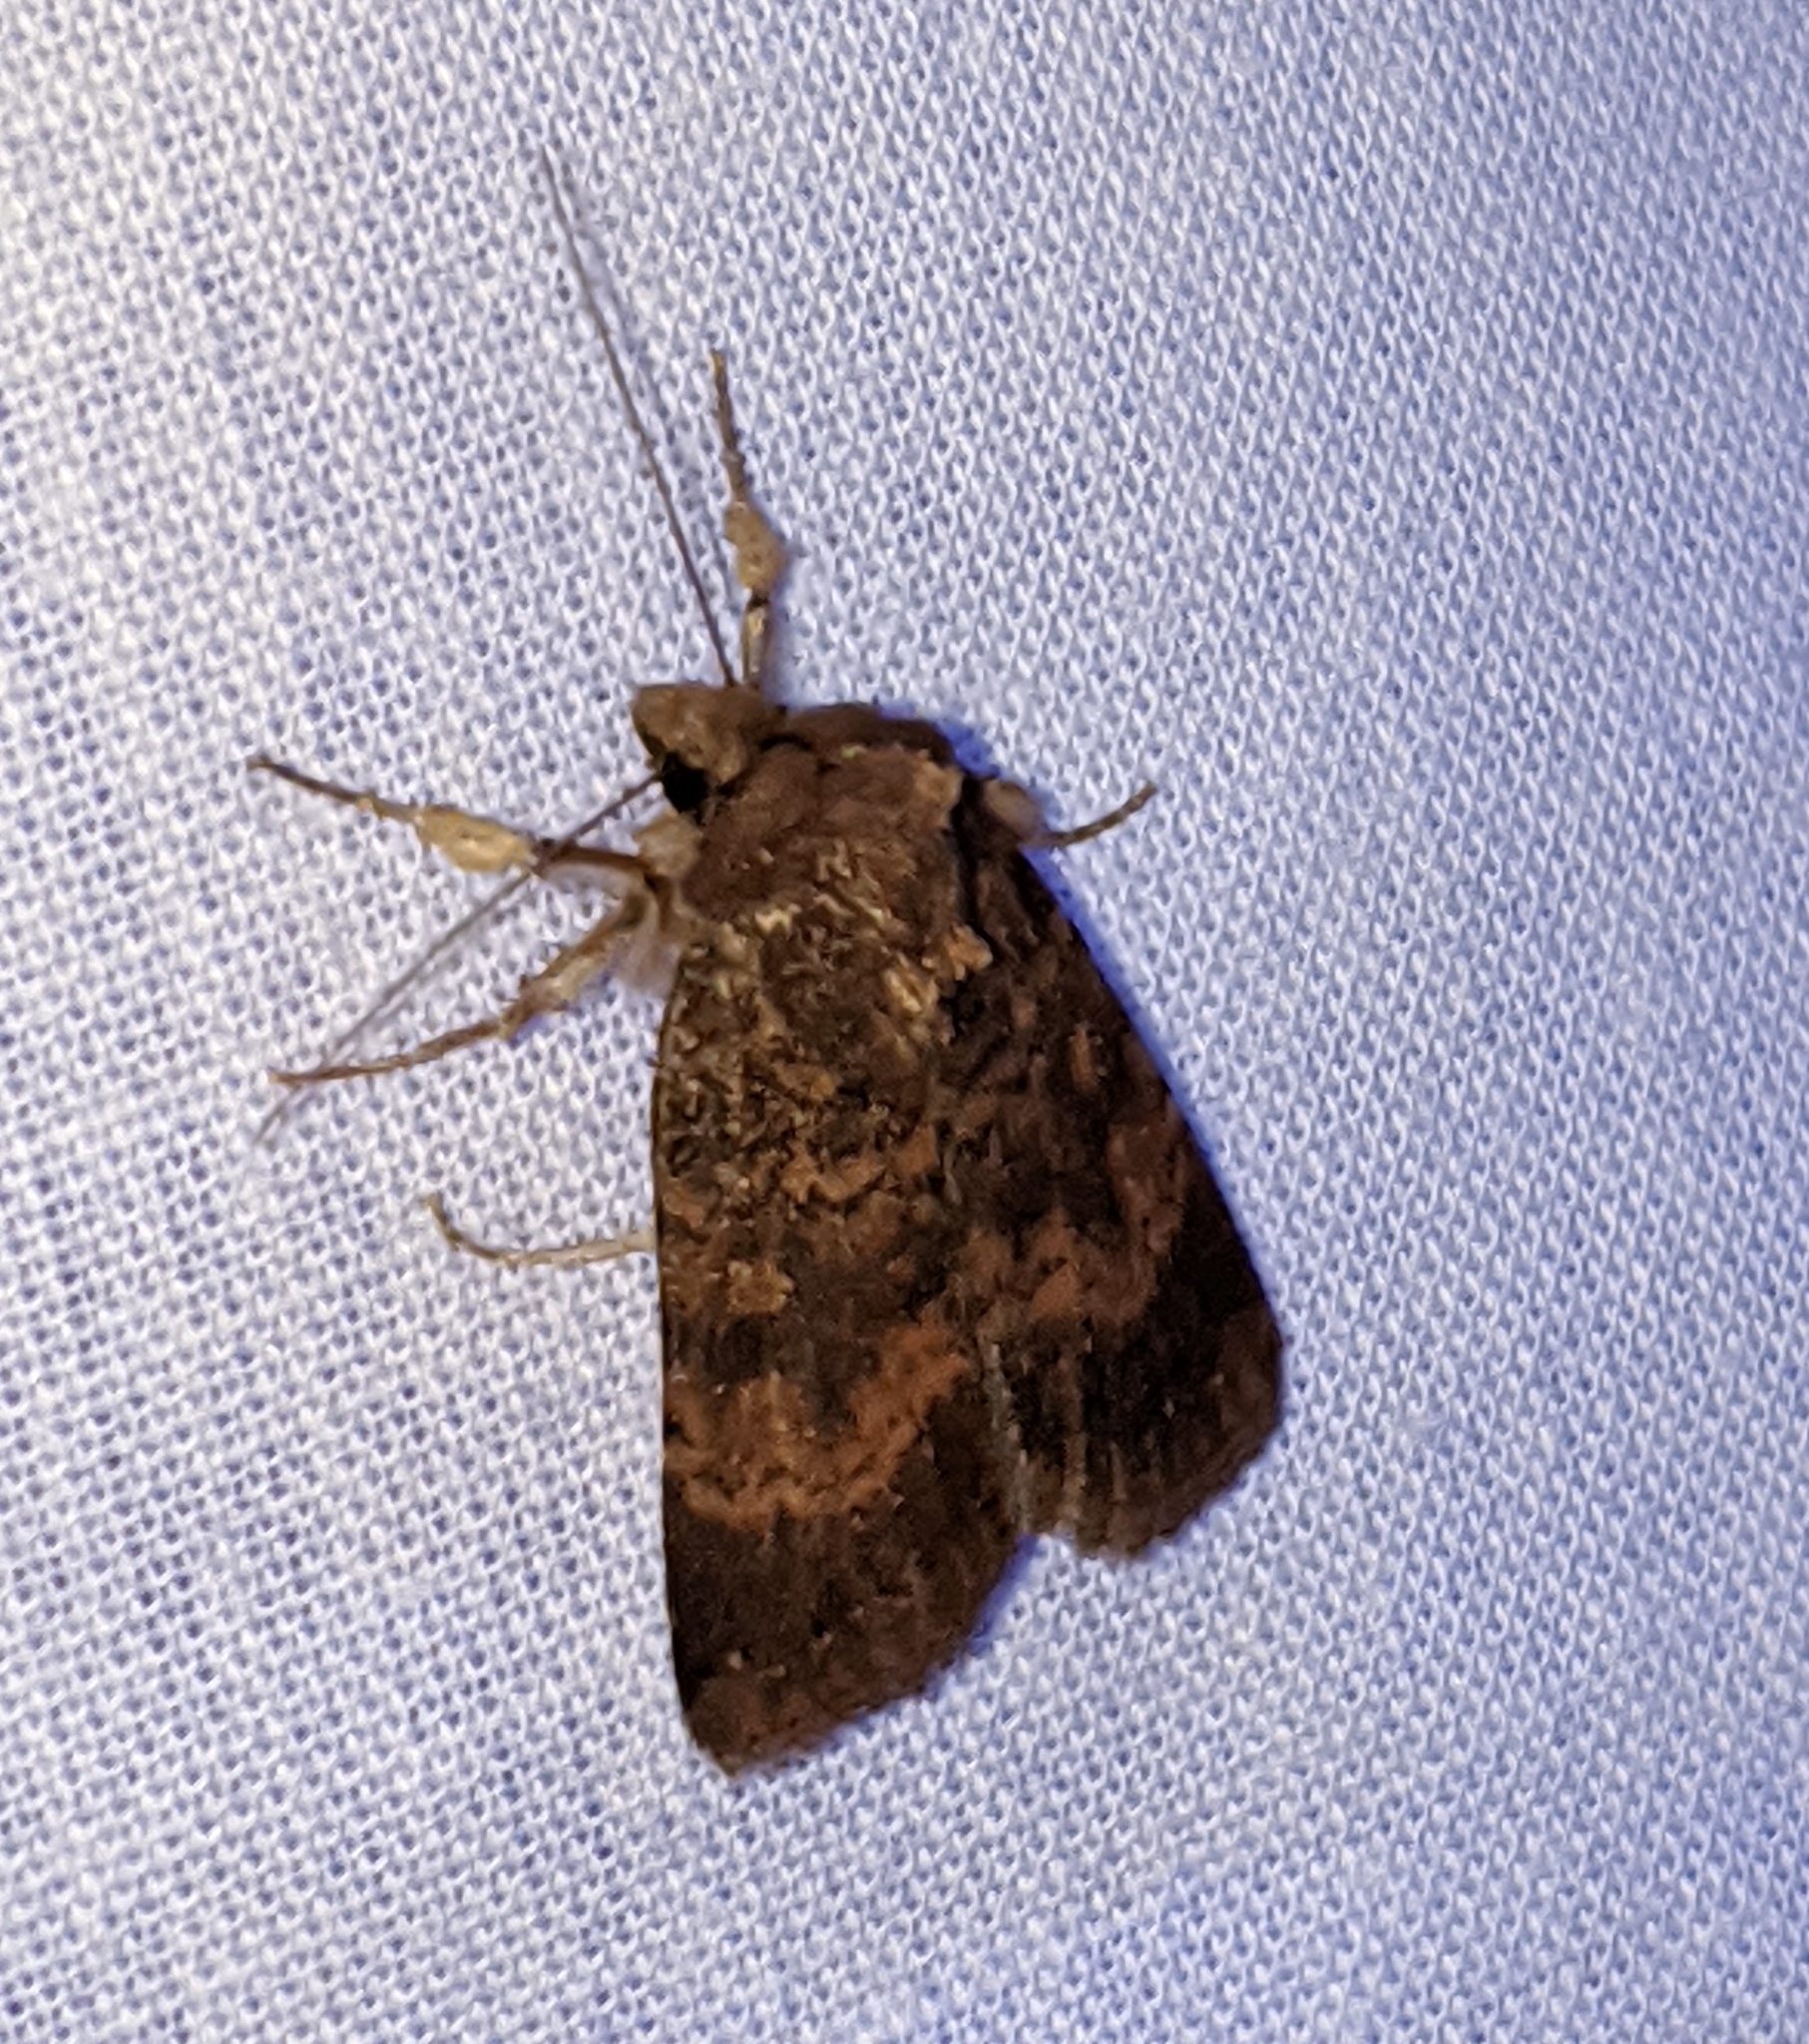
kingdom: Animalia
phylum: Arthropoda
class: Insecta
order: Lepidoptera
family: Noctuidae
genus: Abagrotis
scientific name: Abagrotis apposita
